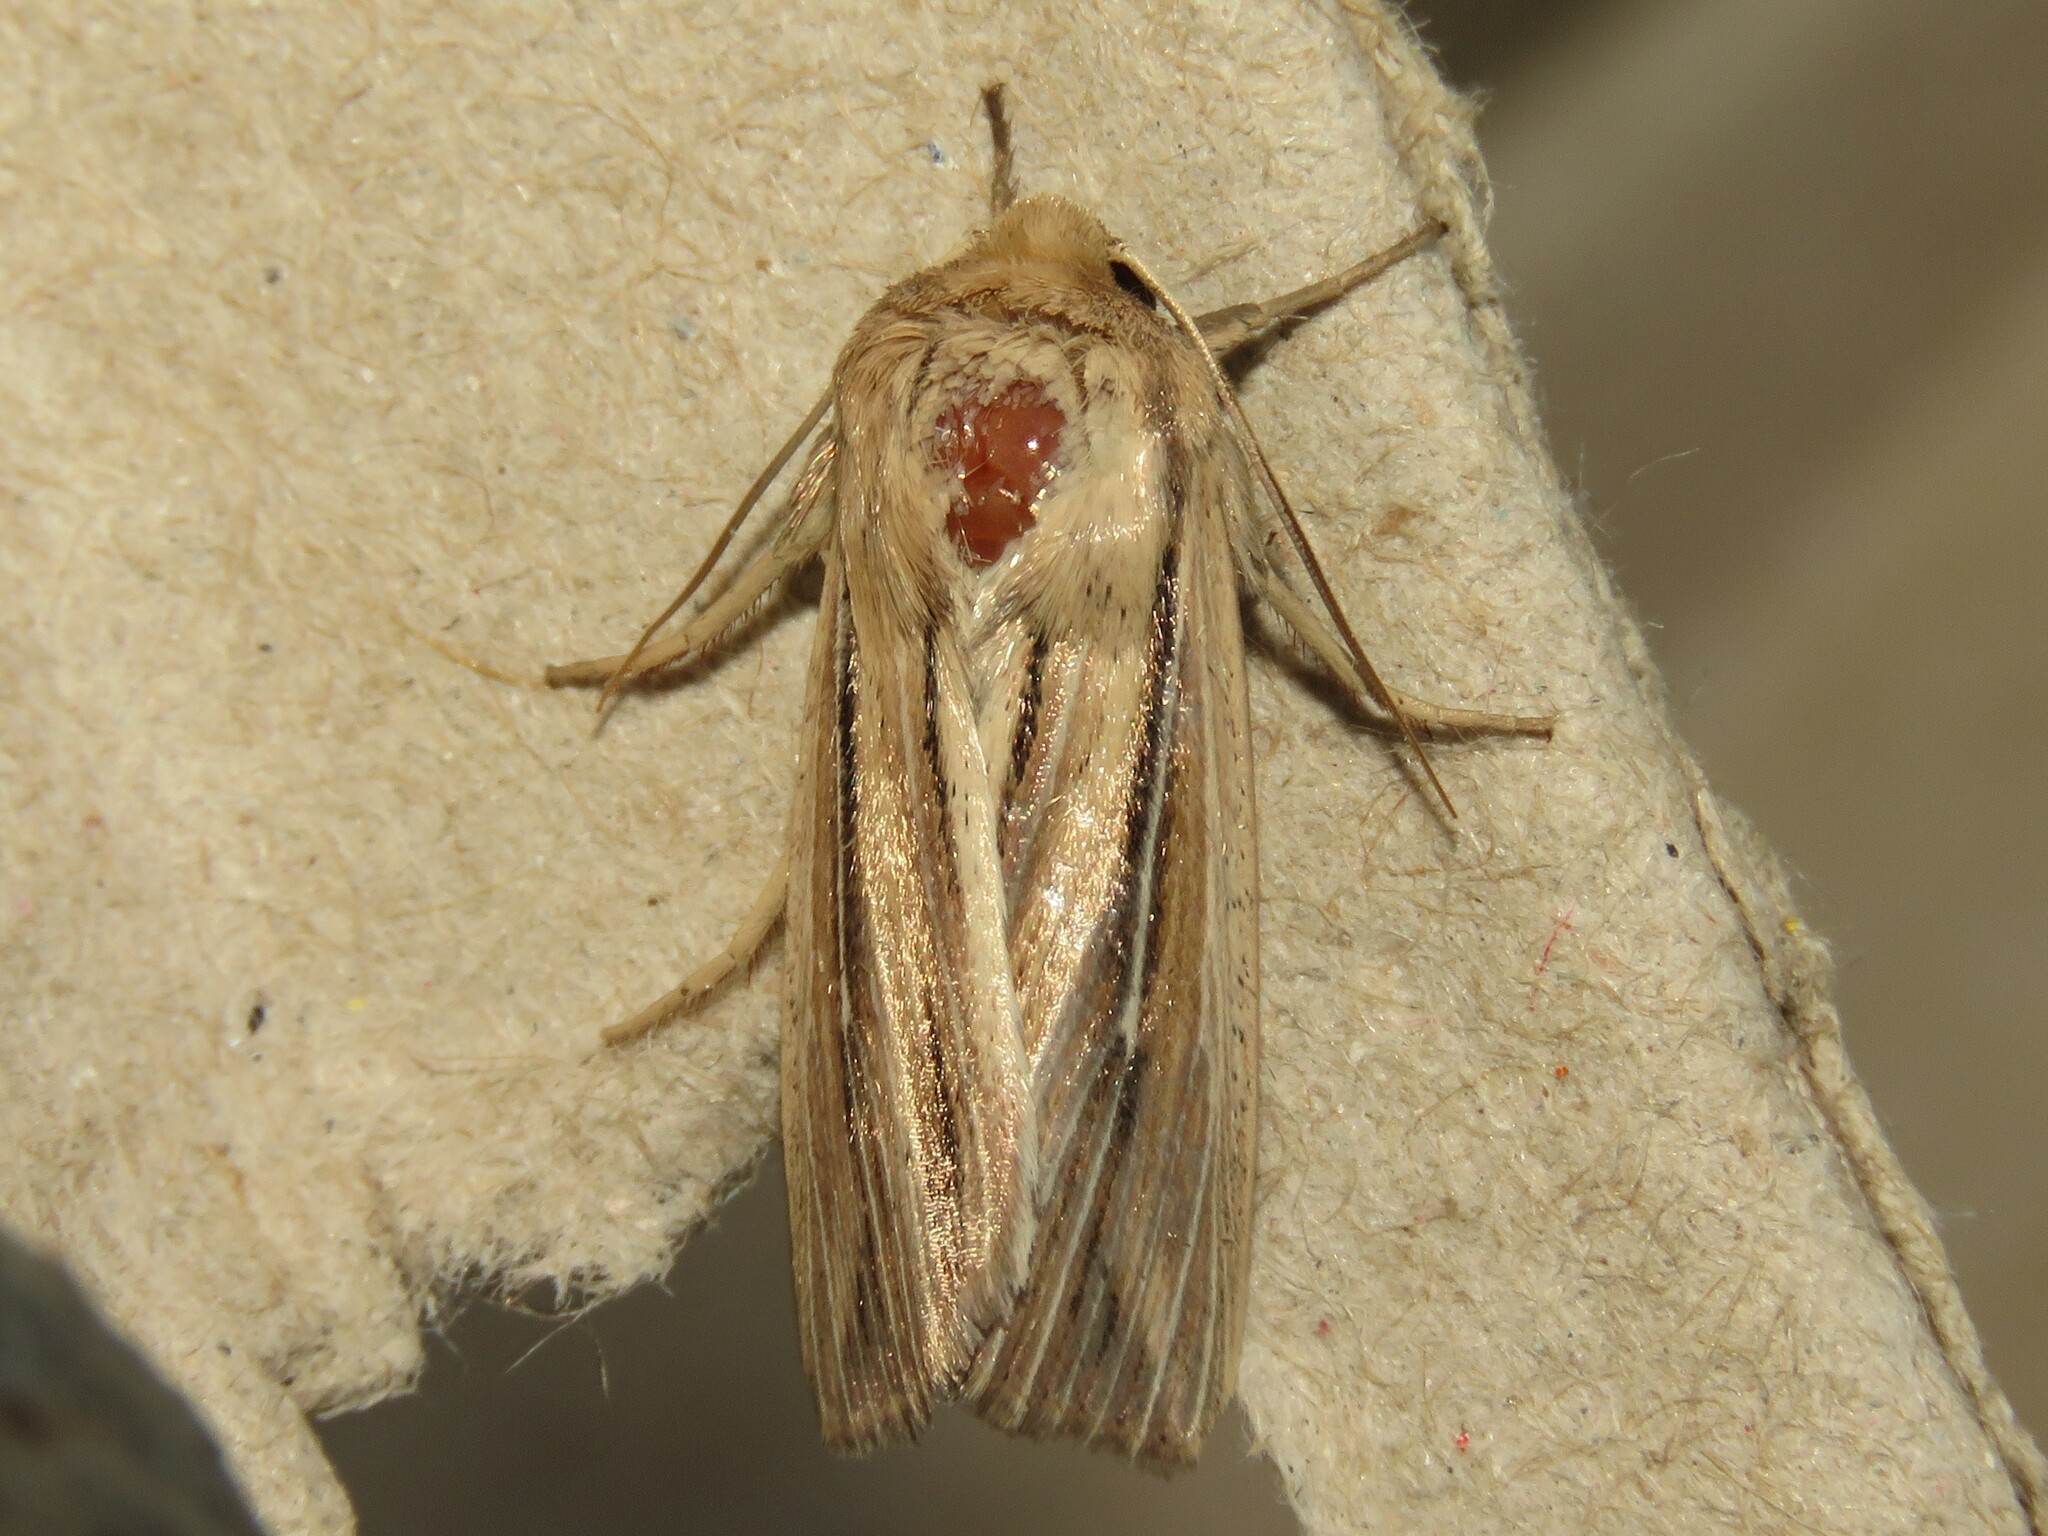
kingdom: Animalia
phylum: Arthropoda
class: Insecta
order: Lepidoptera
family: Noctuidae
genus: Leucania
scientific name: Leucania commoides
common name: Two-lined wainscot
